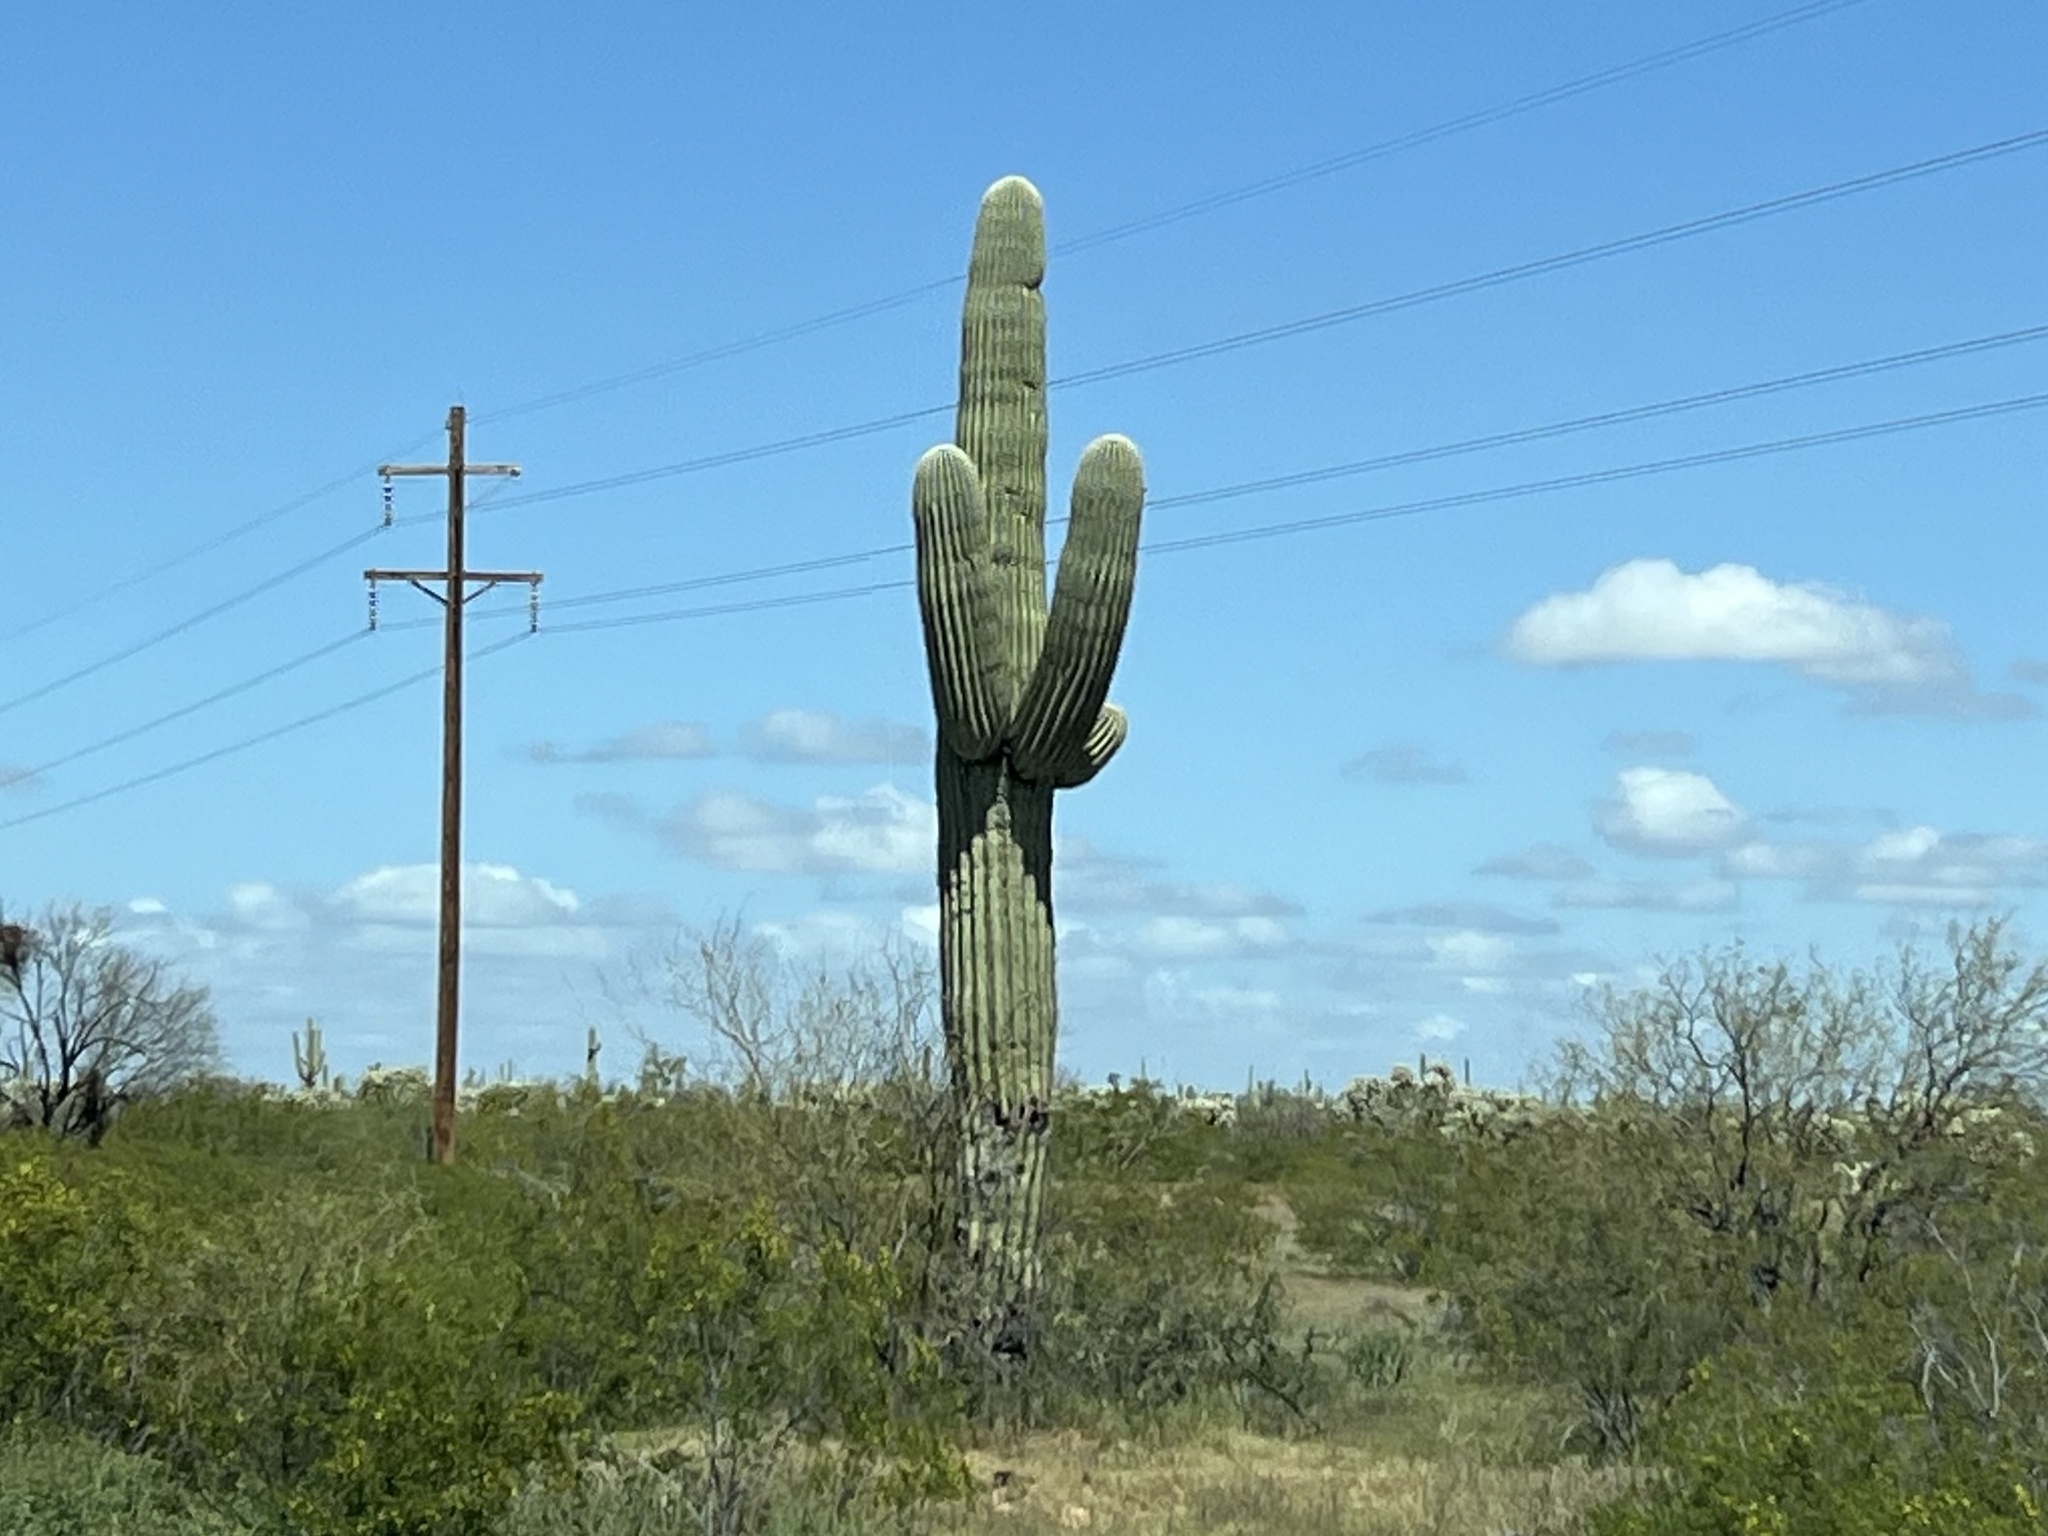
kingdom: Plantae
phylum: Tracheophyta
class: Magnoliopsida
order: Caryophyllales
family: Cactaceae
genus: Carnegiea
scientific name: Carnegiea gigantea
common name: Saguaro
